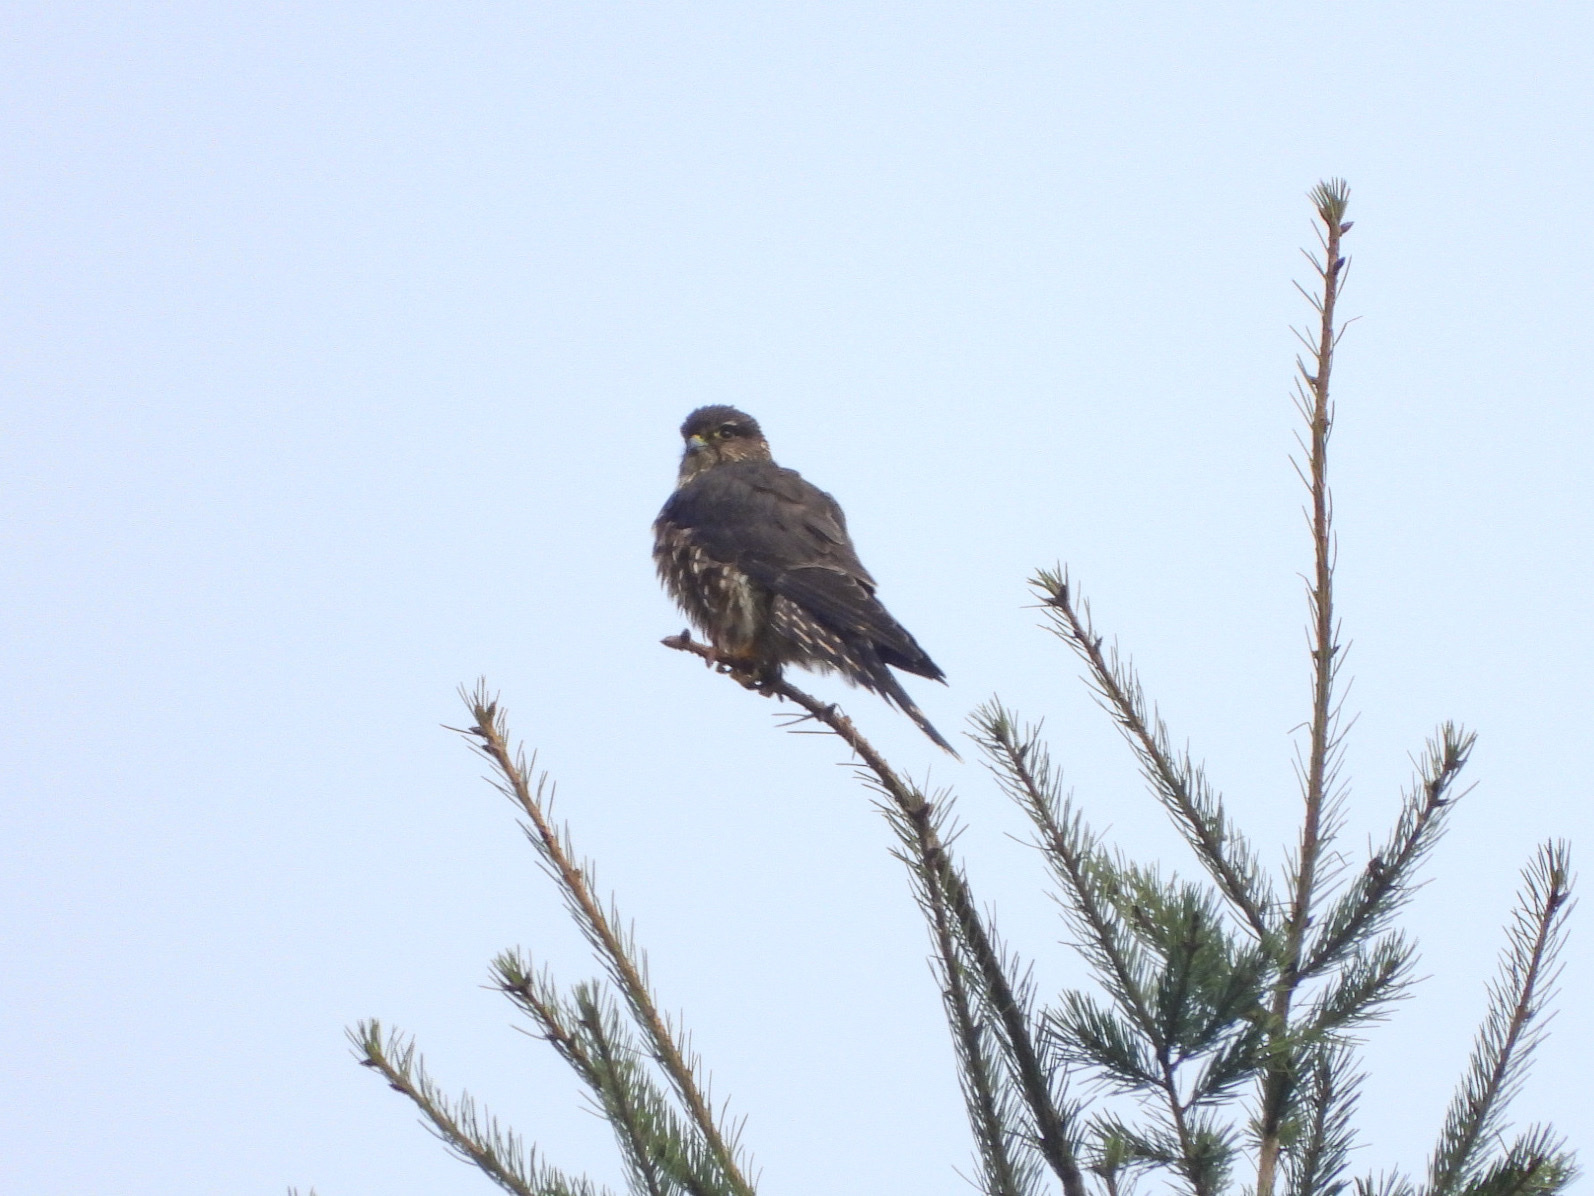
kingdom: Animalia
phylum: Chordata
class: Aves
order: Falconiformes
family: Falconidae
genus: Falco
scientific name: Falco columbarius
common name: Merlin
